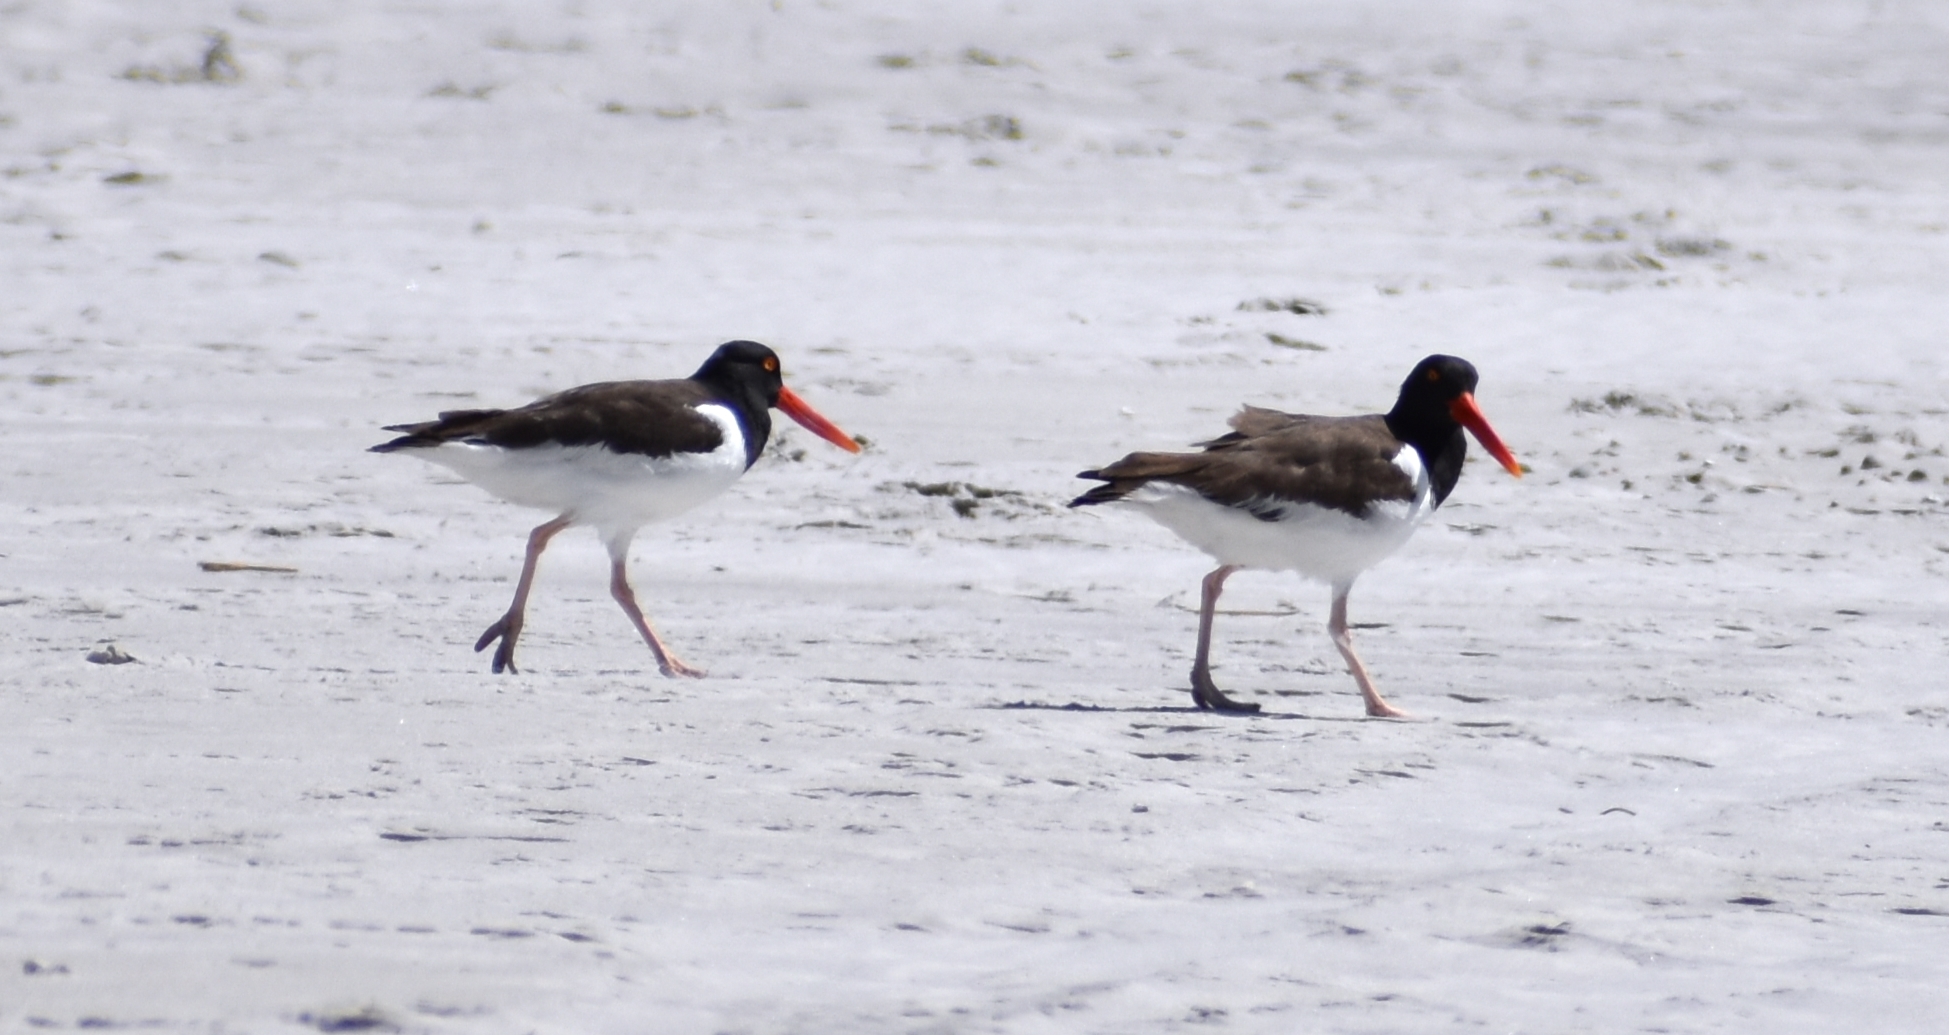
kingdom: Animalia
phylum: Chordata
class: Aves
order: Charadriiformes
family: Haematopodidae
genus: Haematopus
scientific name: Haematopus palliatus
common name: American oystercatcher
